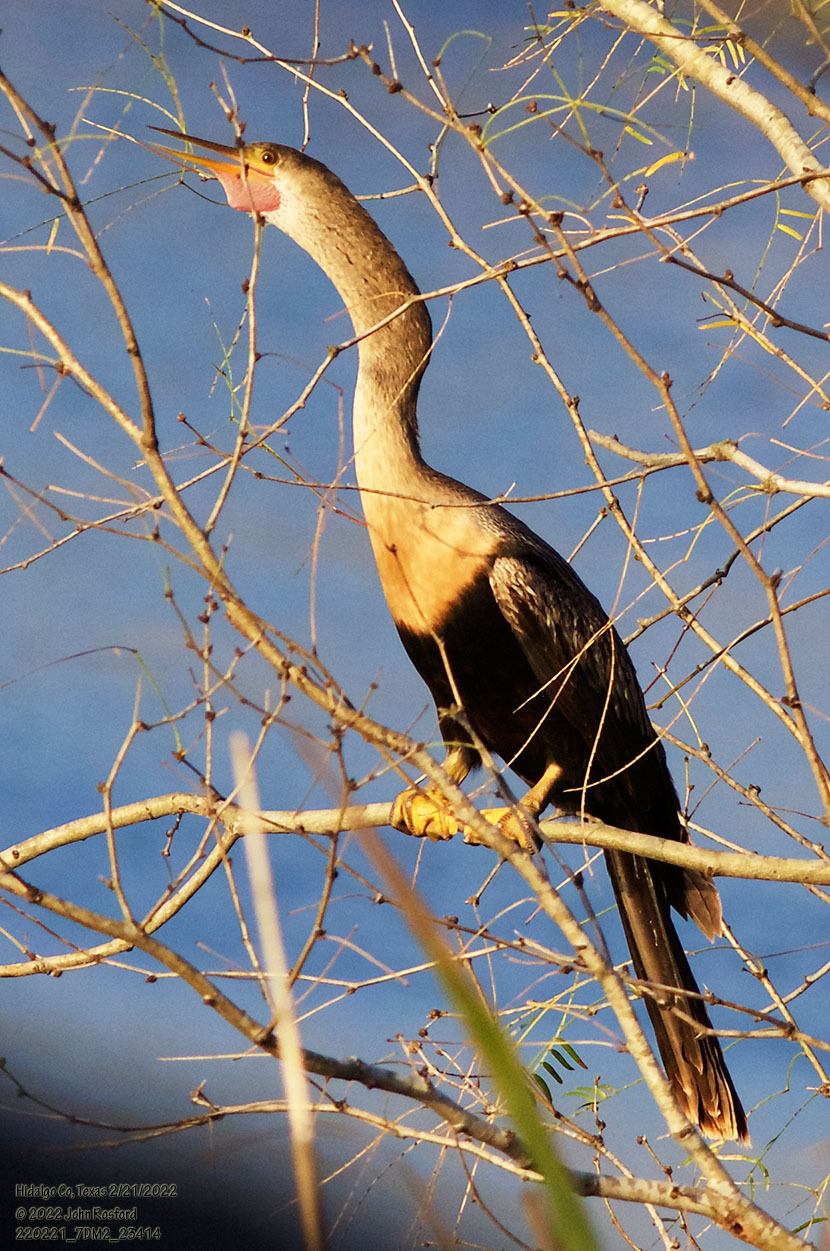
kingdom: Animalia
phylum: Chordata
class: Aves
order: Suliformes
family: Anhingidae
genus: Anhinga
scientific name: Anhinga anhinga
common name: Anhinga
